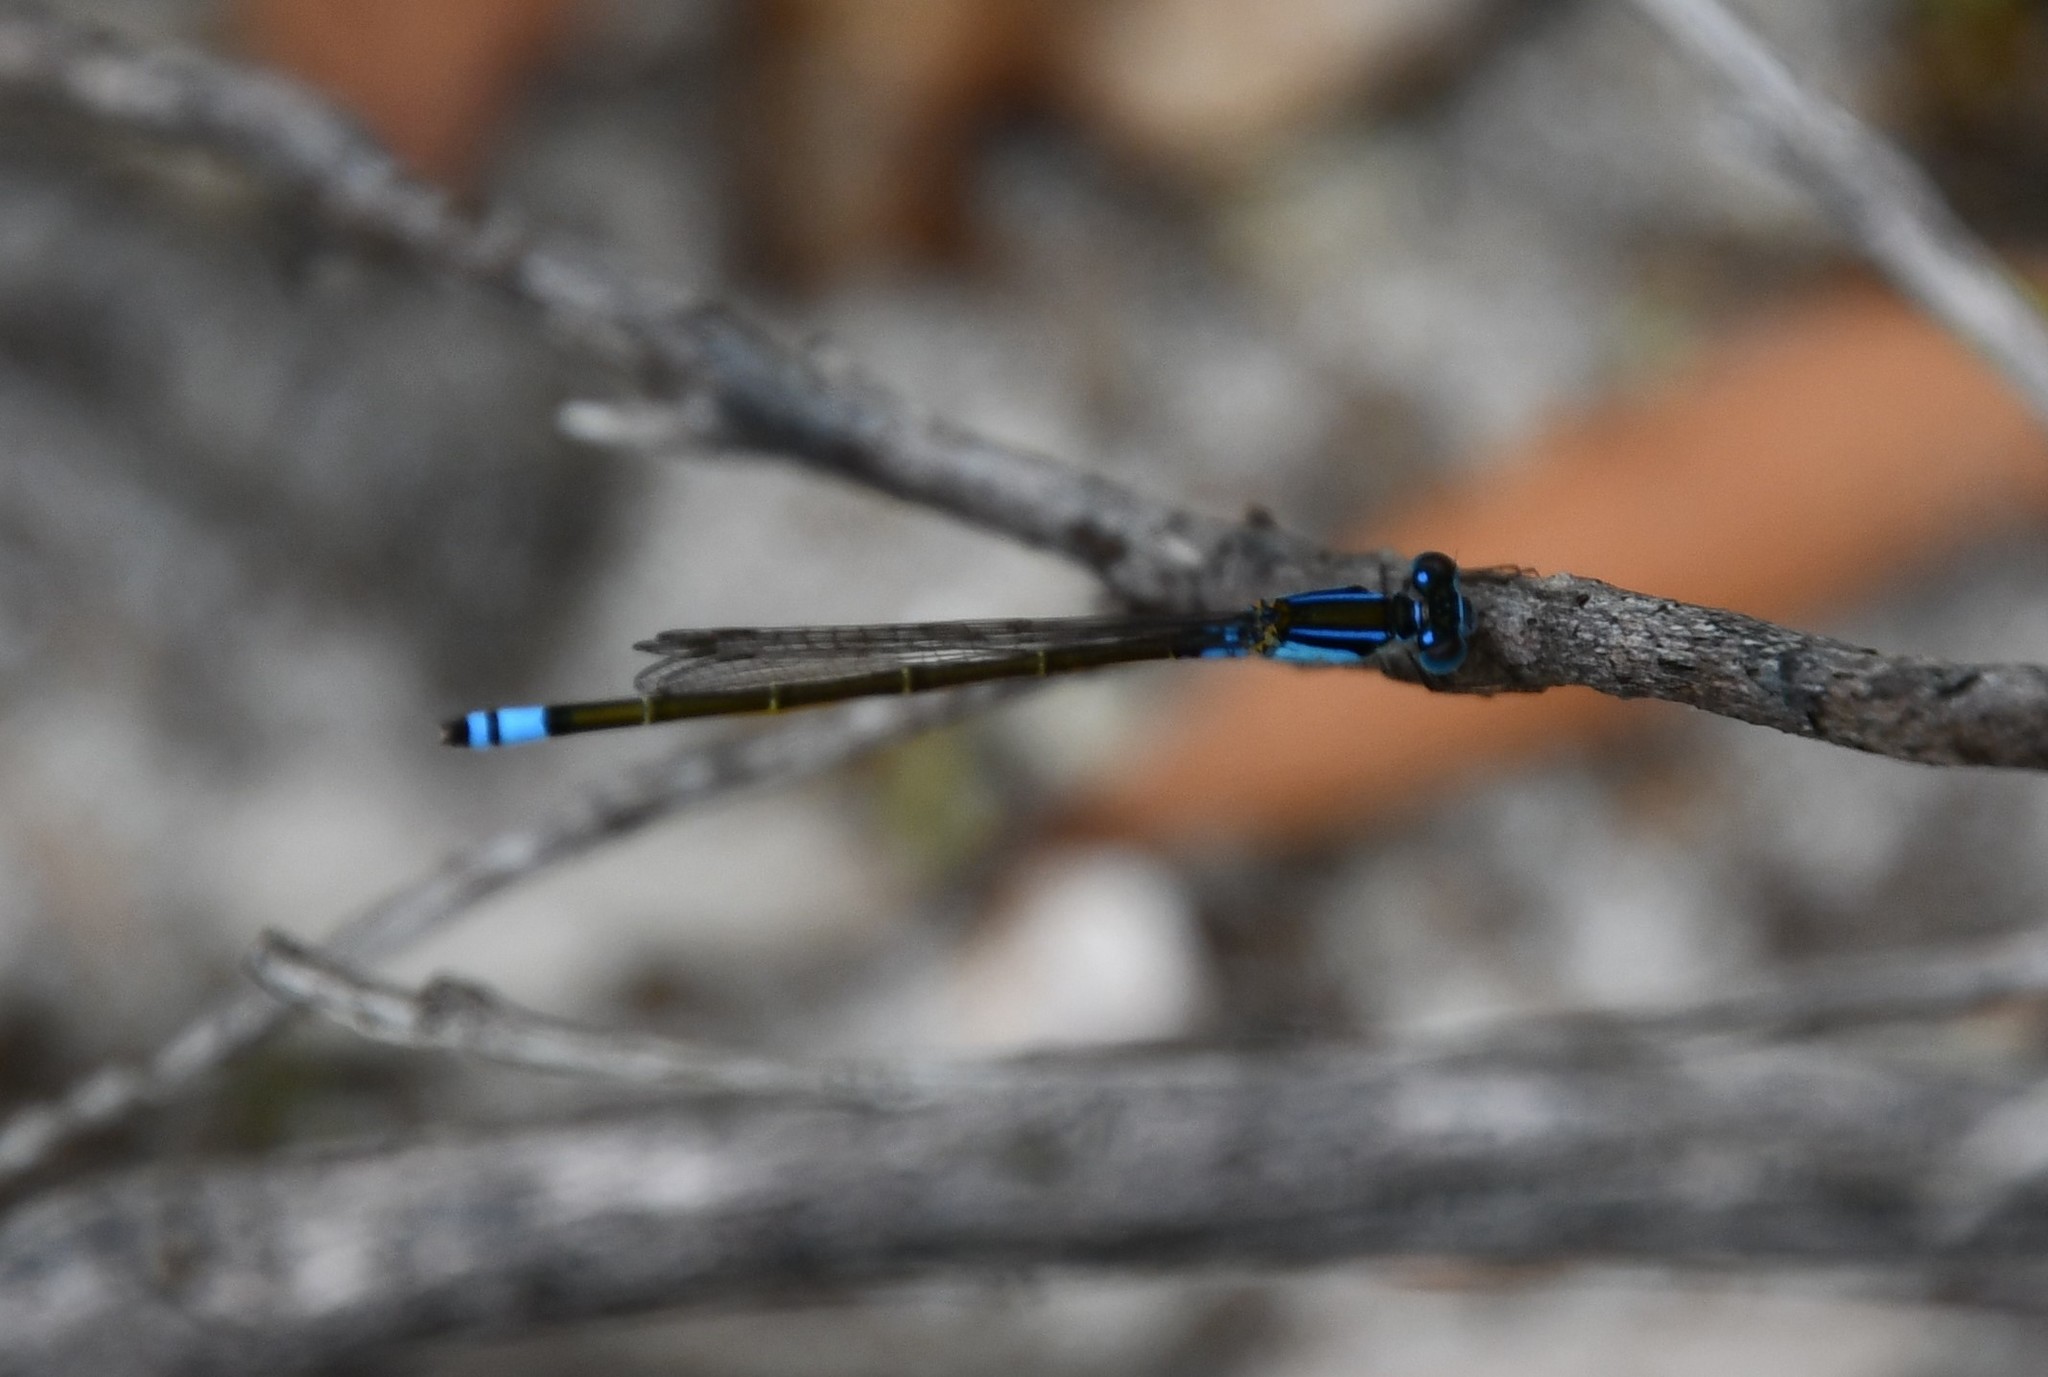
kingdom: Animalia
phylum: Arthropoda
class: Insecta
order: Odonata
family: Coenagrionidae
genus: Ischnura
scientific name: Ischnura heterosticta
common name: Common bluetail
